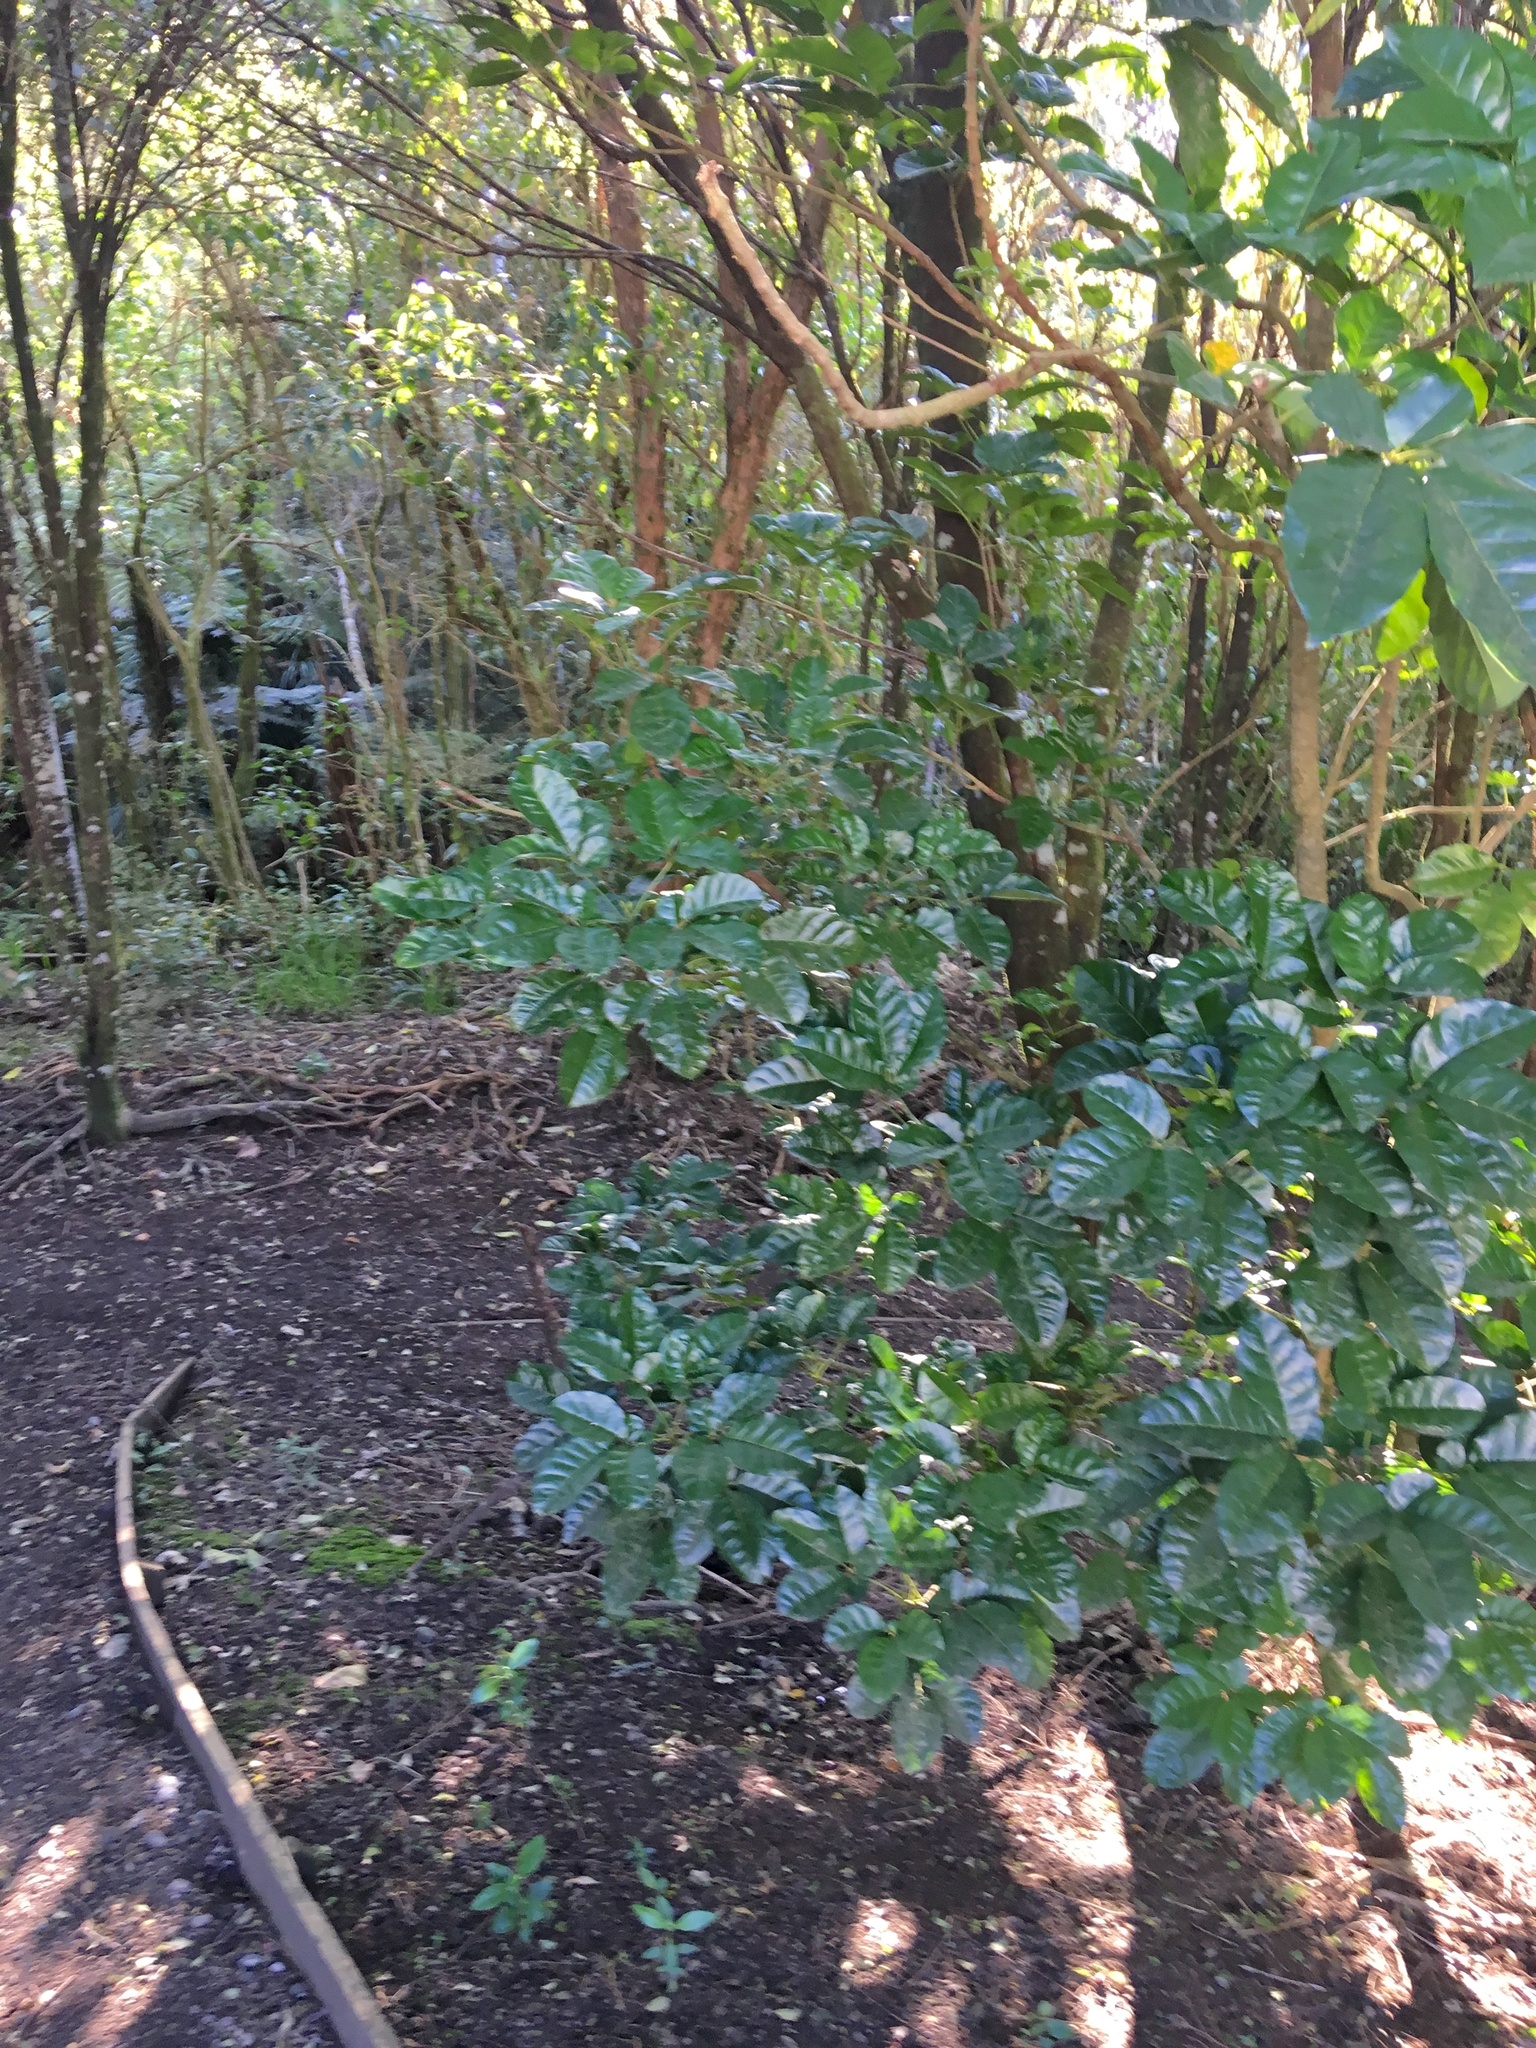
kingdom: Plantae
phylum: Tracheophyta
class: Magnoliopsida
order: Lamiales
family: Lamiaceae
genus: Vitex
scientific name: Vitex lucens
